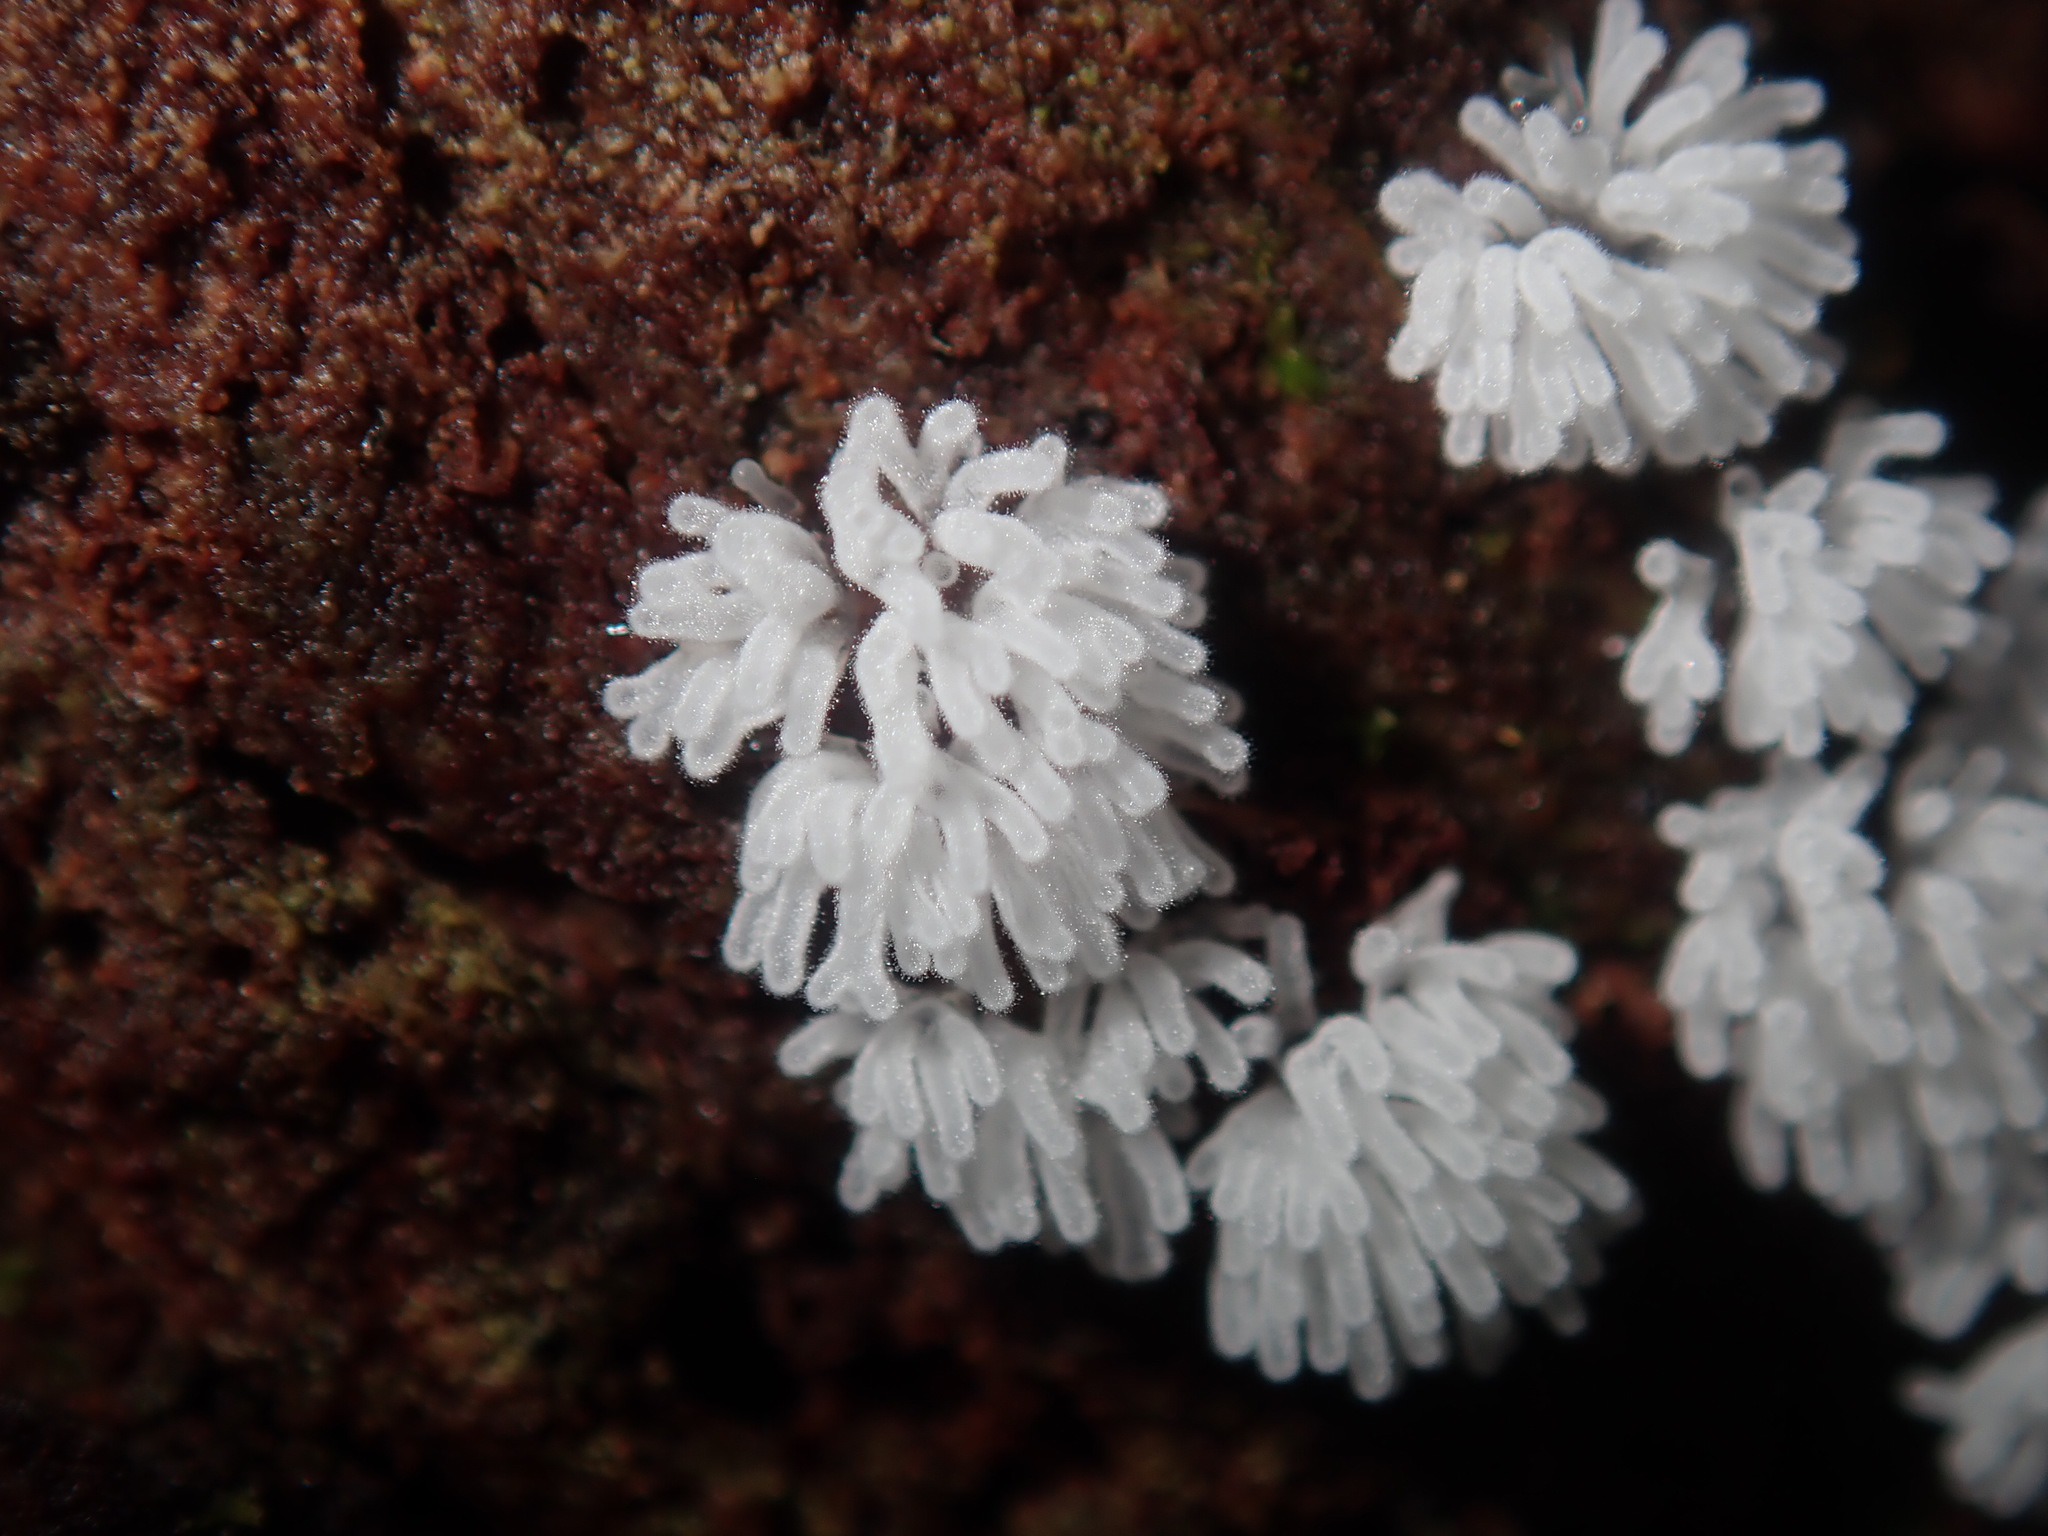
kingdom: Protozoa
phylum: Mycetozoa
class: Protosteliomycetes
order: Ceratiomyxales
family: Ceratiomyxaceae
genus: Ceratiomyxa
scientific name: Ceratiomyxa fruticulosa
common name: Honeycomb coral slime mold
